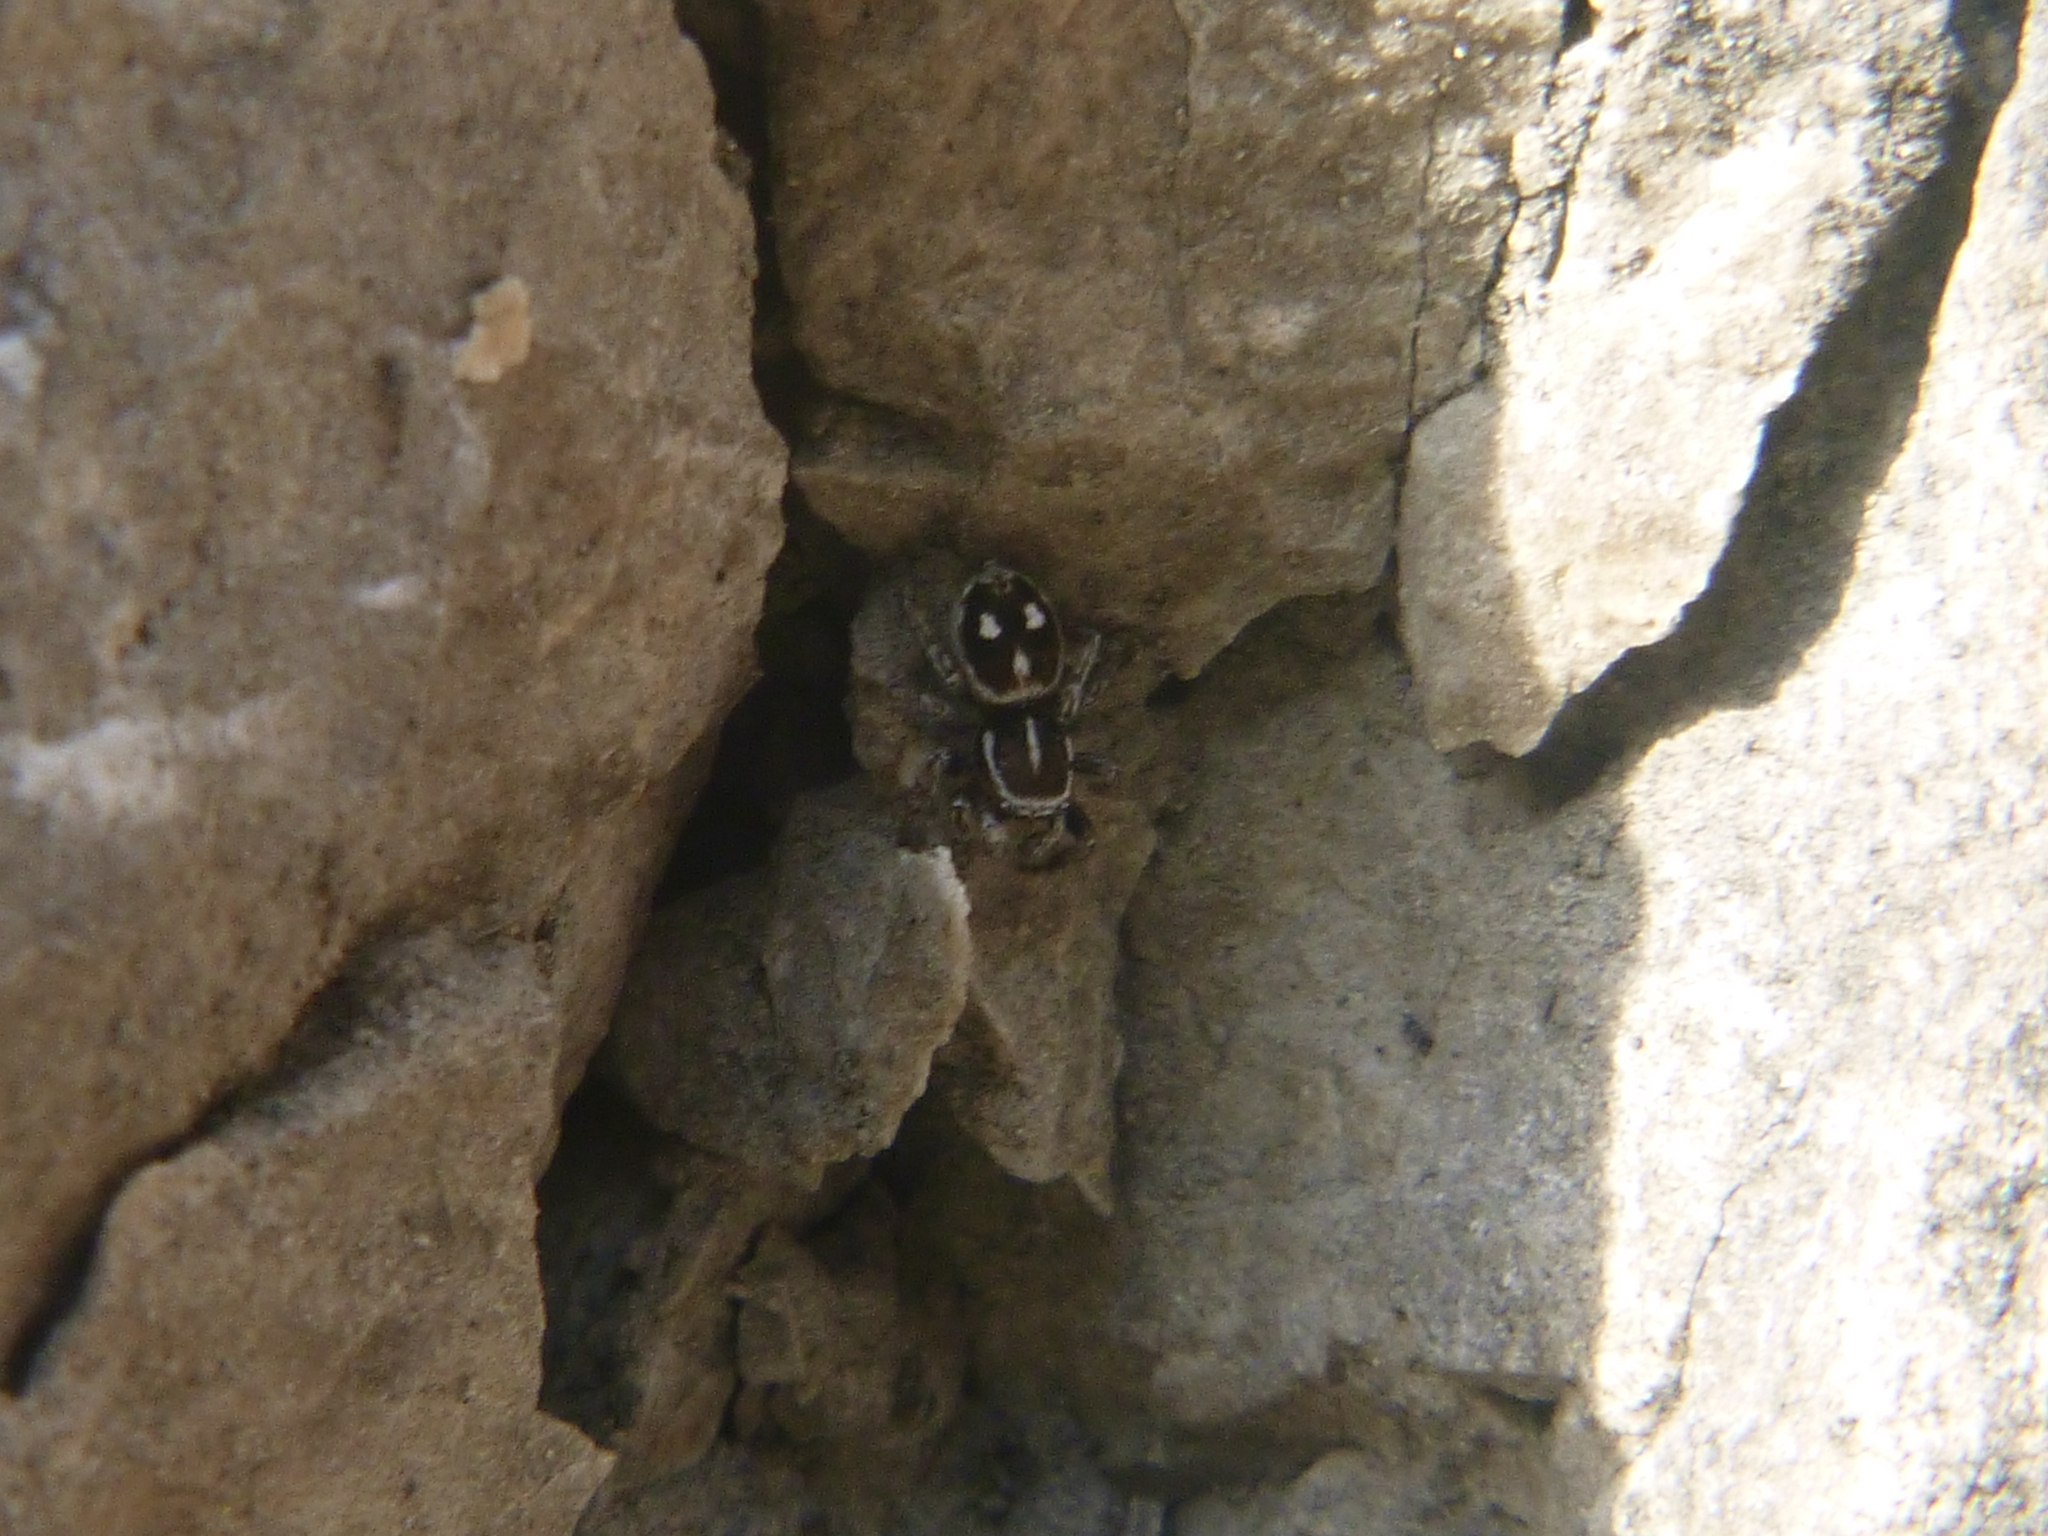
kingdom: Animalia
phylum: Arthropoda
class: Arachnida
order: Araneae
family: Salticidae
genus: Attulus
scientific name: Attulus atricapillus
